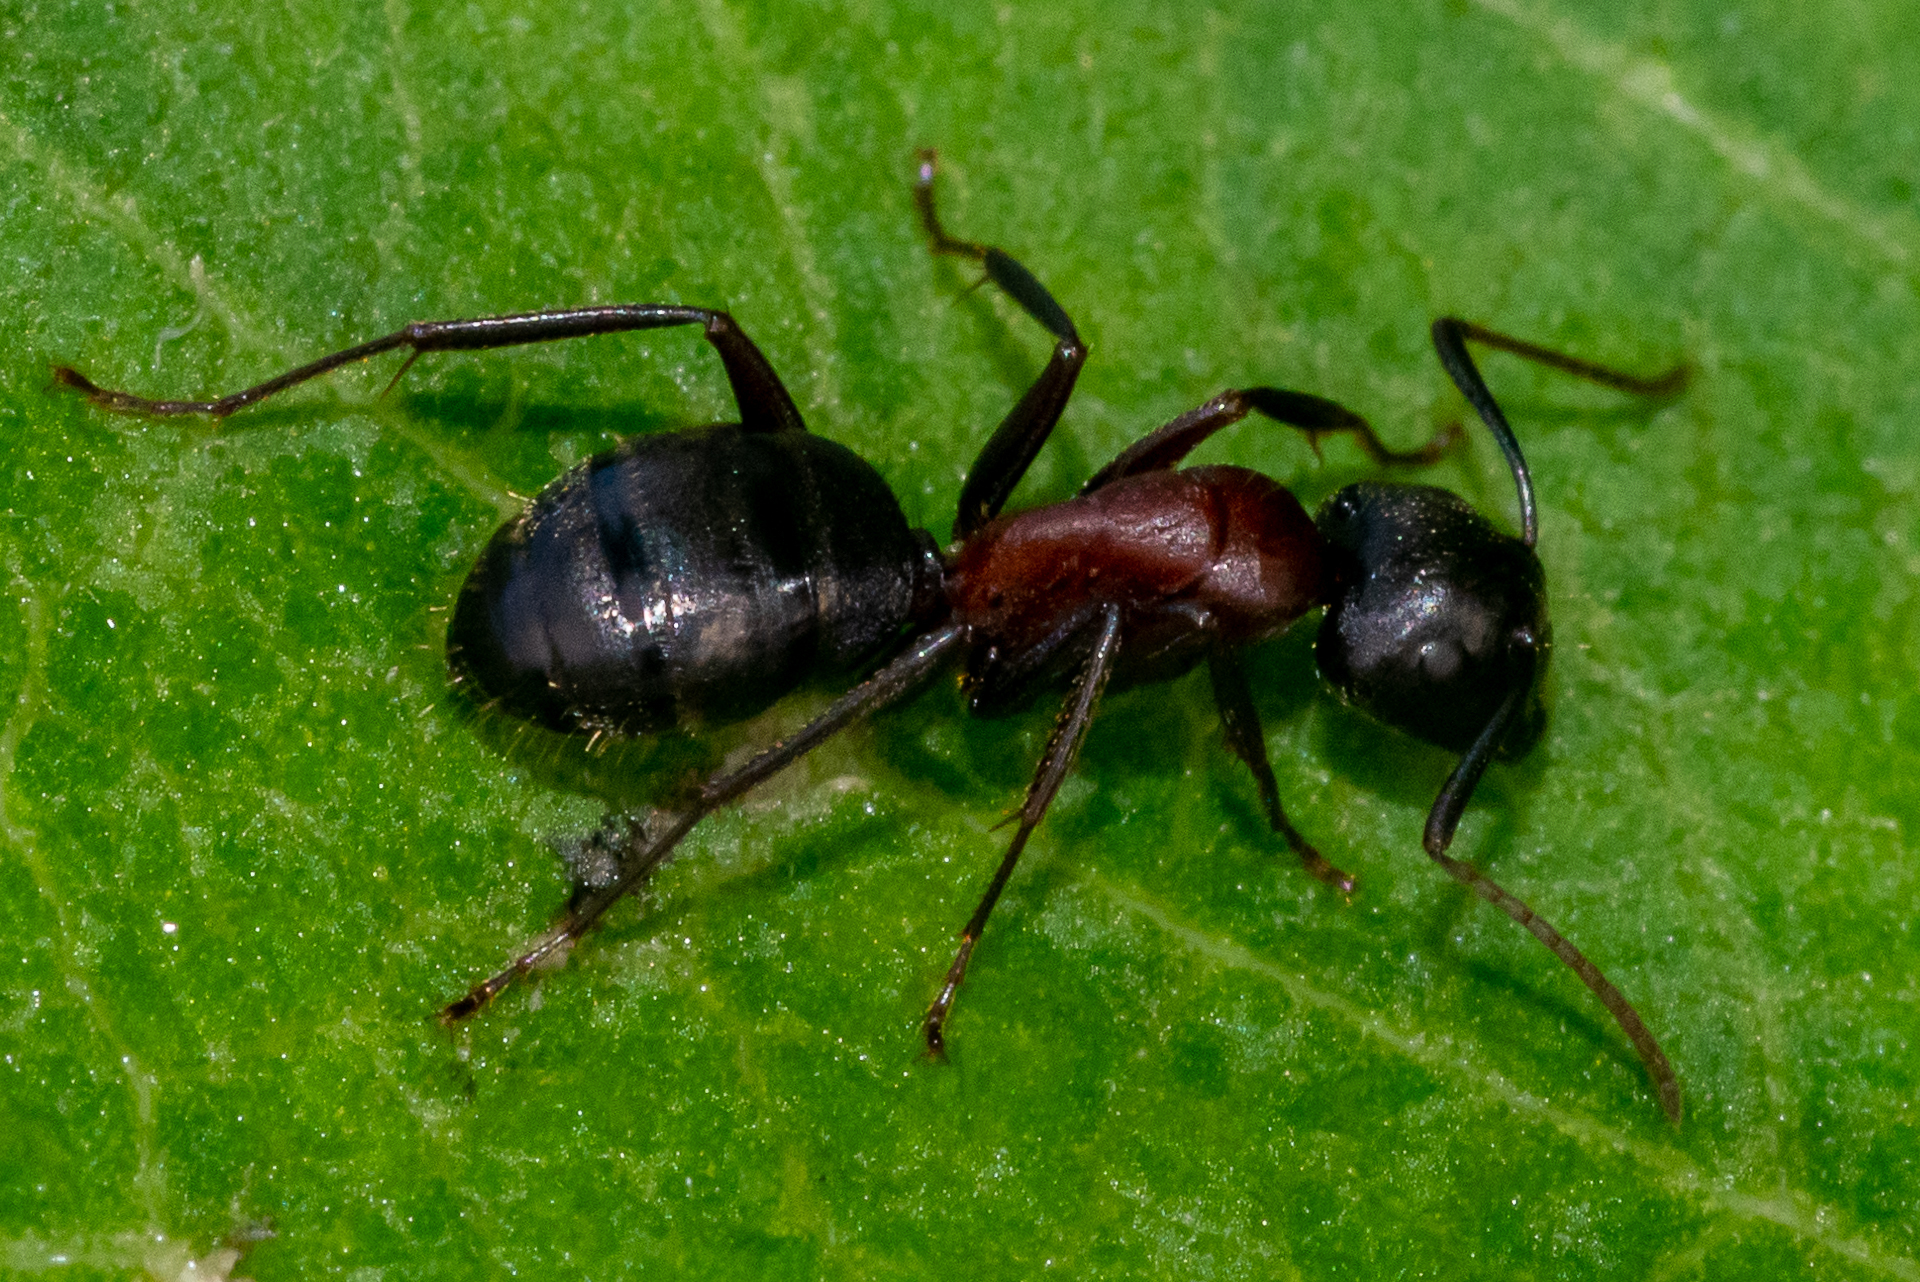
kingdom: Animalia
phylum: Arthropoda
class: Insecta
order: Hymenoptera
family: Formicidae
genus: Camponotus
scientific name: Camponotus novaeboracensis
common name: New york carpenter ant
